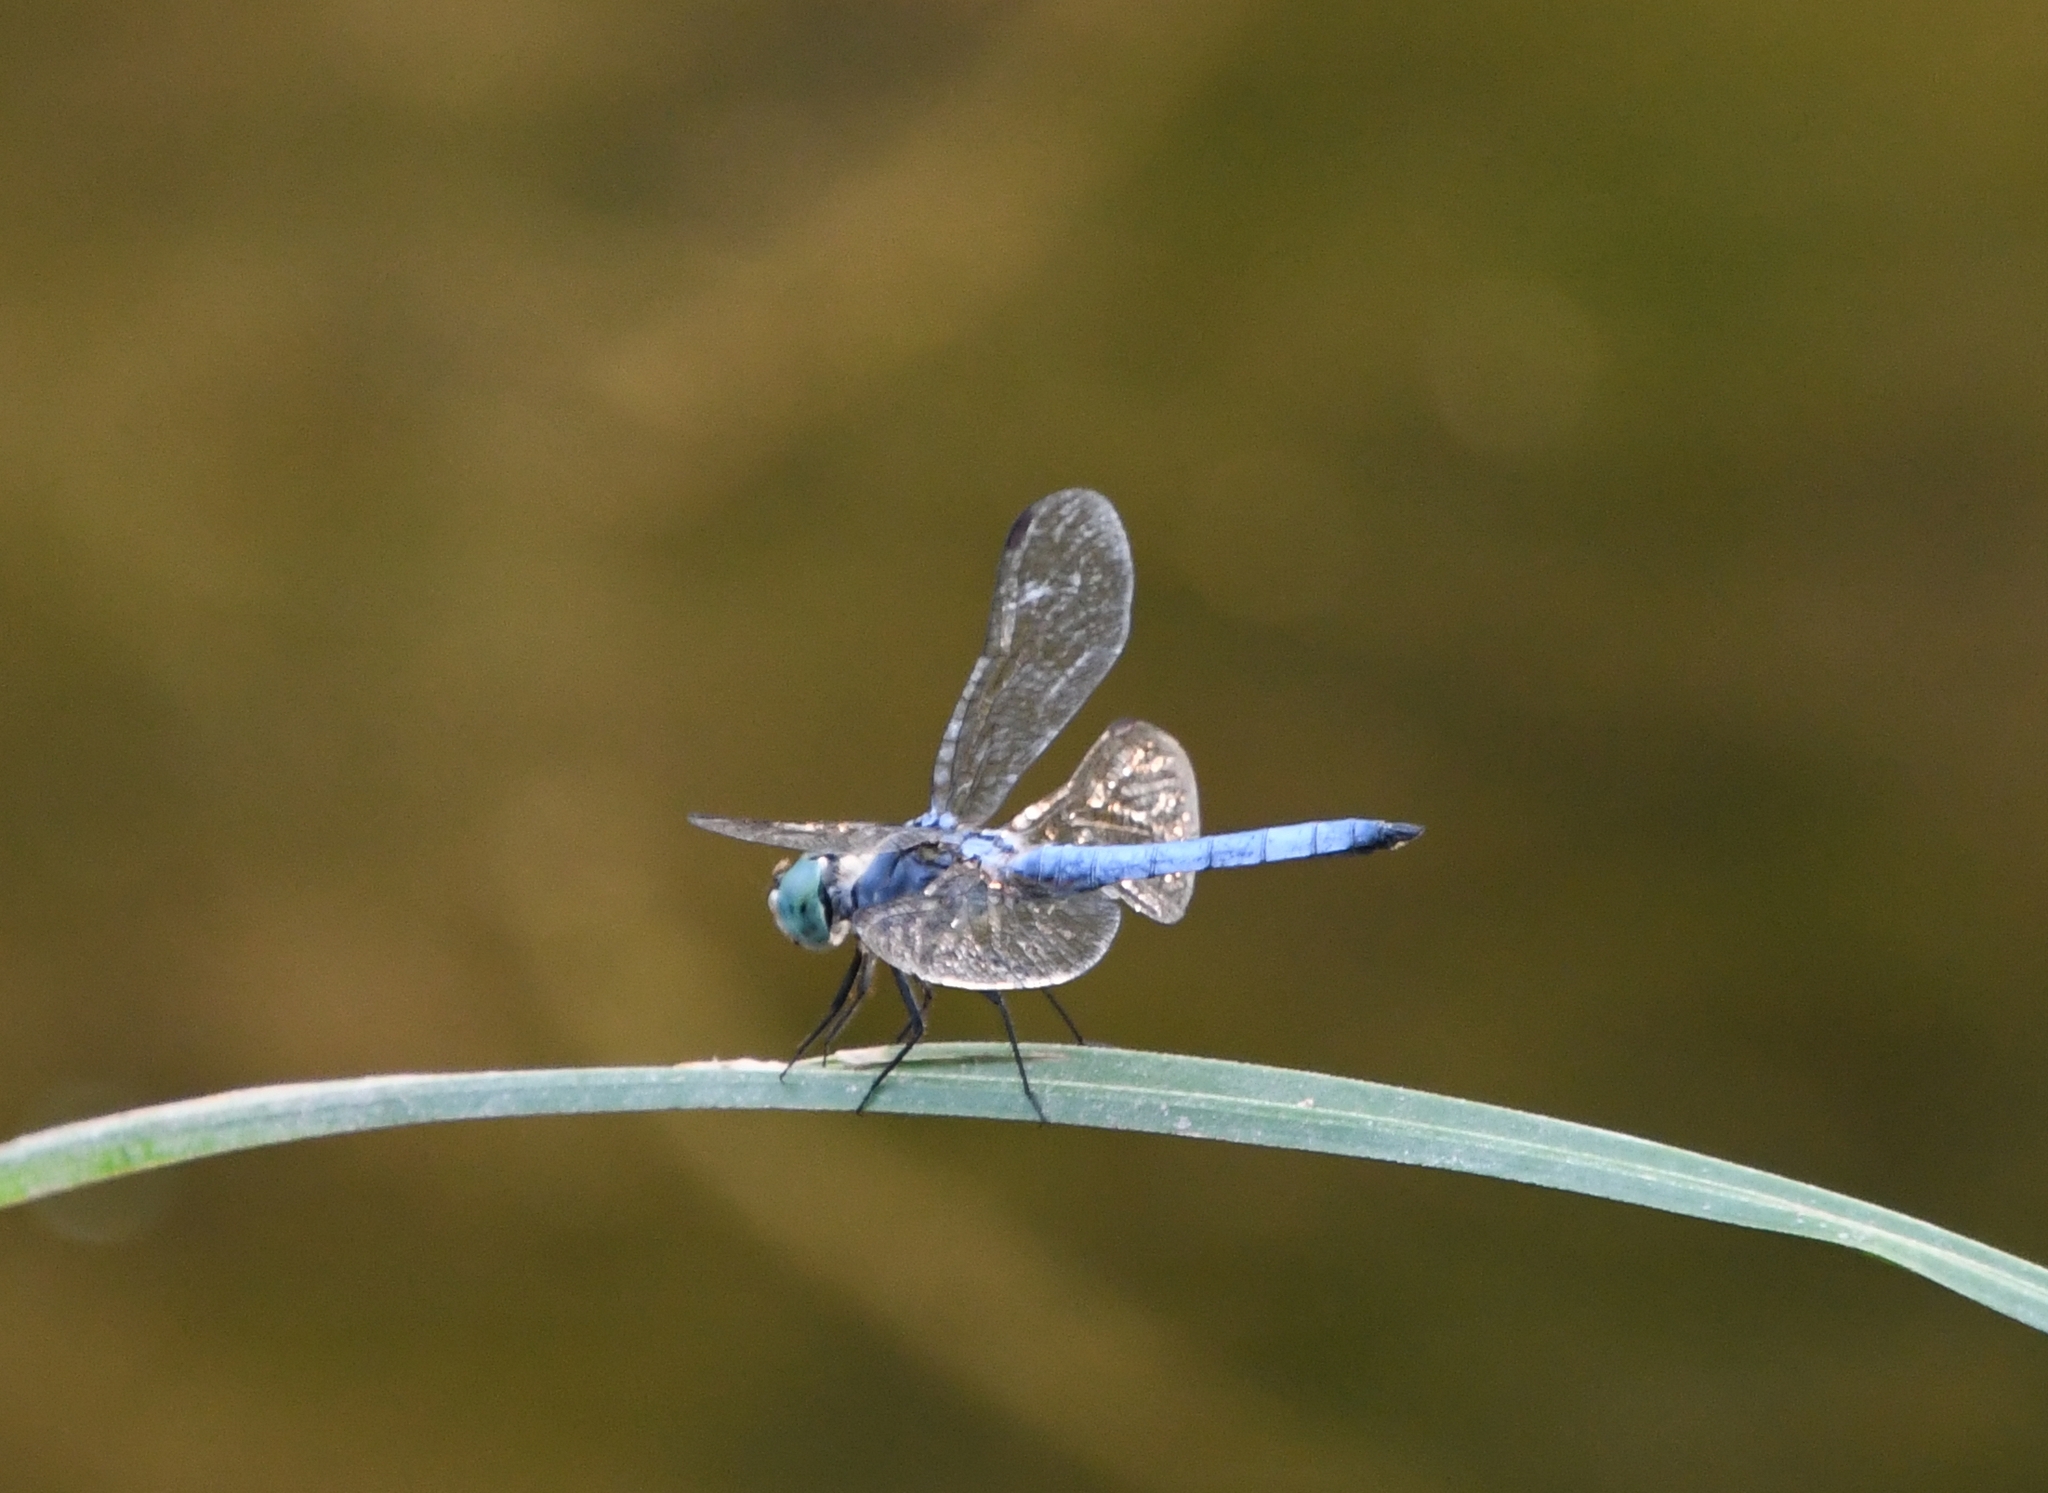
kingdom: Animalia
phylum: Arthropoda
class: Insecta
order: Odonata
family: Libellulidae
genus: Pachydiplax
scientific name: Pachydiplax longipennis
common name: Blue dasher
